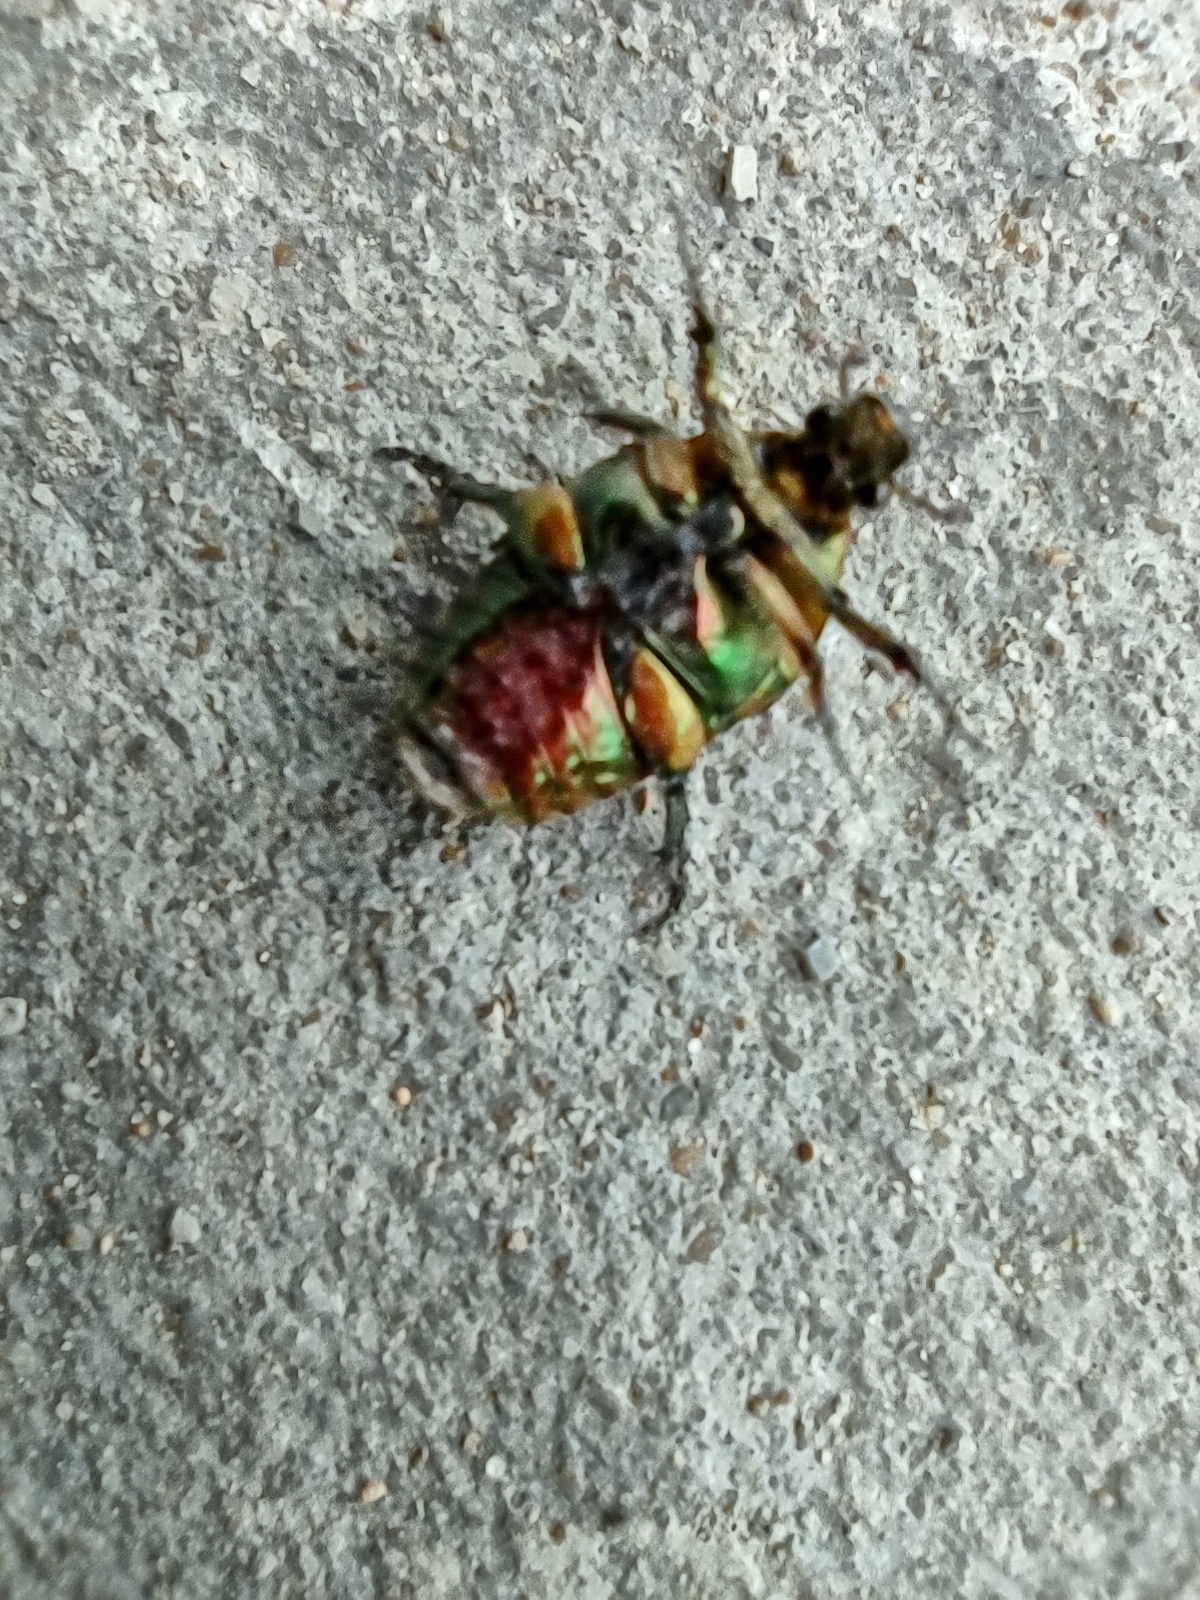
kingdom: Animalia
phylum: Arthropoda
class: Insecta
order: Coleoptera
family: Scarabaeidae
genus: Cotinis
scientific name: Cotinis nitida
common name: Common green june beetle
